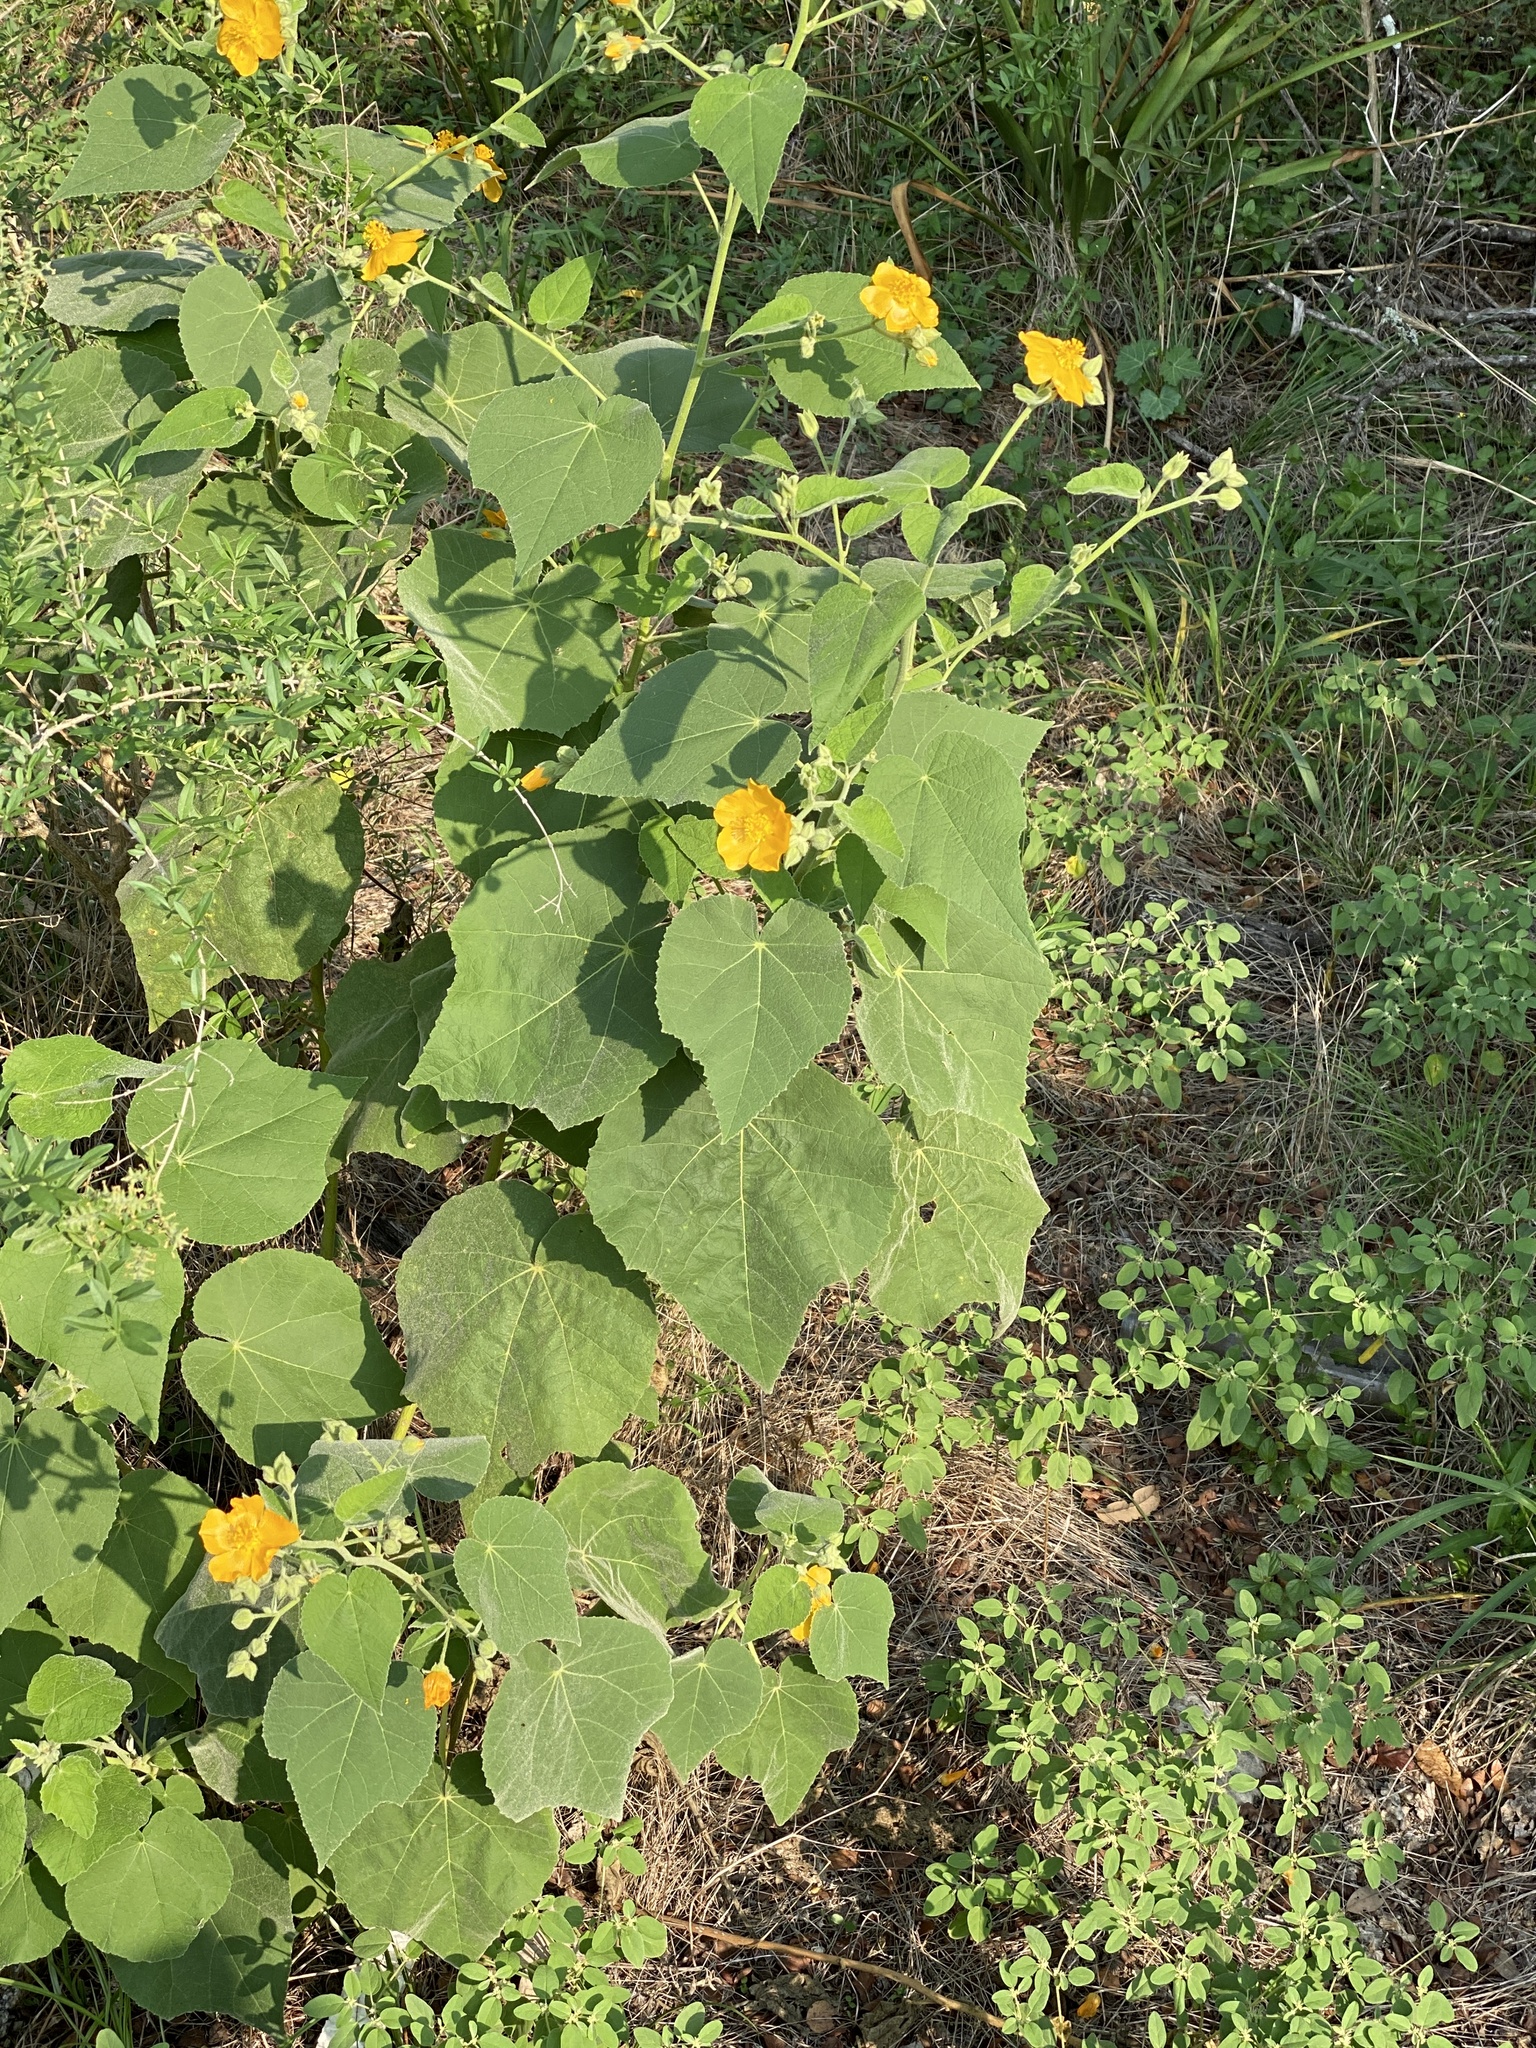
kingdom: Plantae
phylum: Tracheophyta
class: Magnoliopsida
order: Malvales
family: Malvaceae
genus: Allowissadula
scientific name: Allowissadula holosericea
